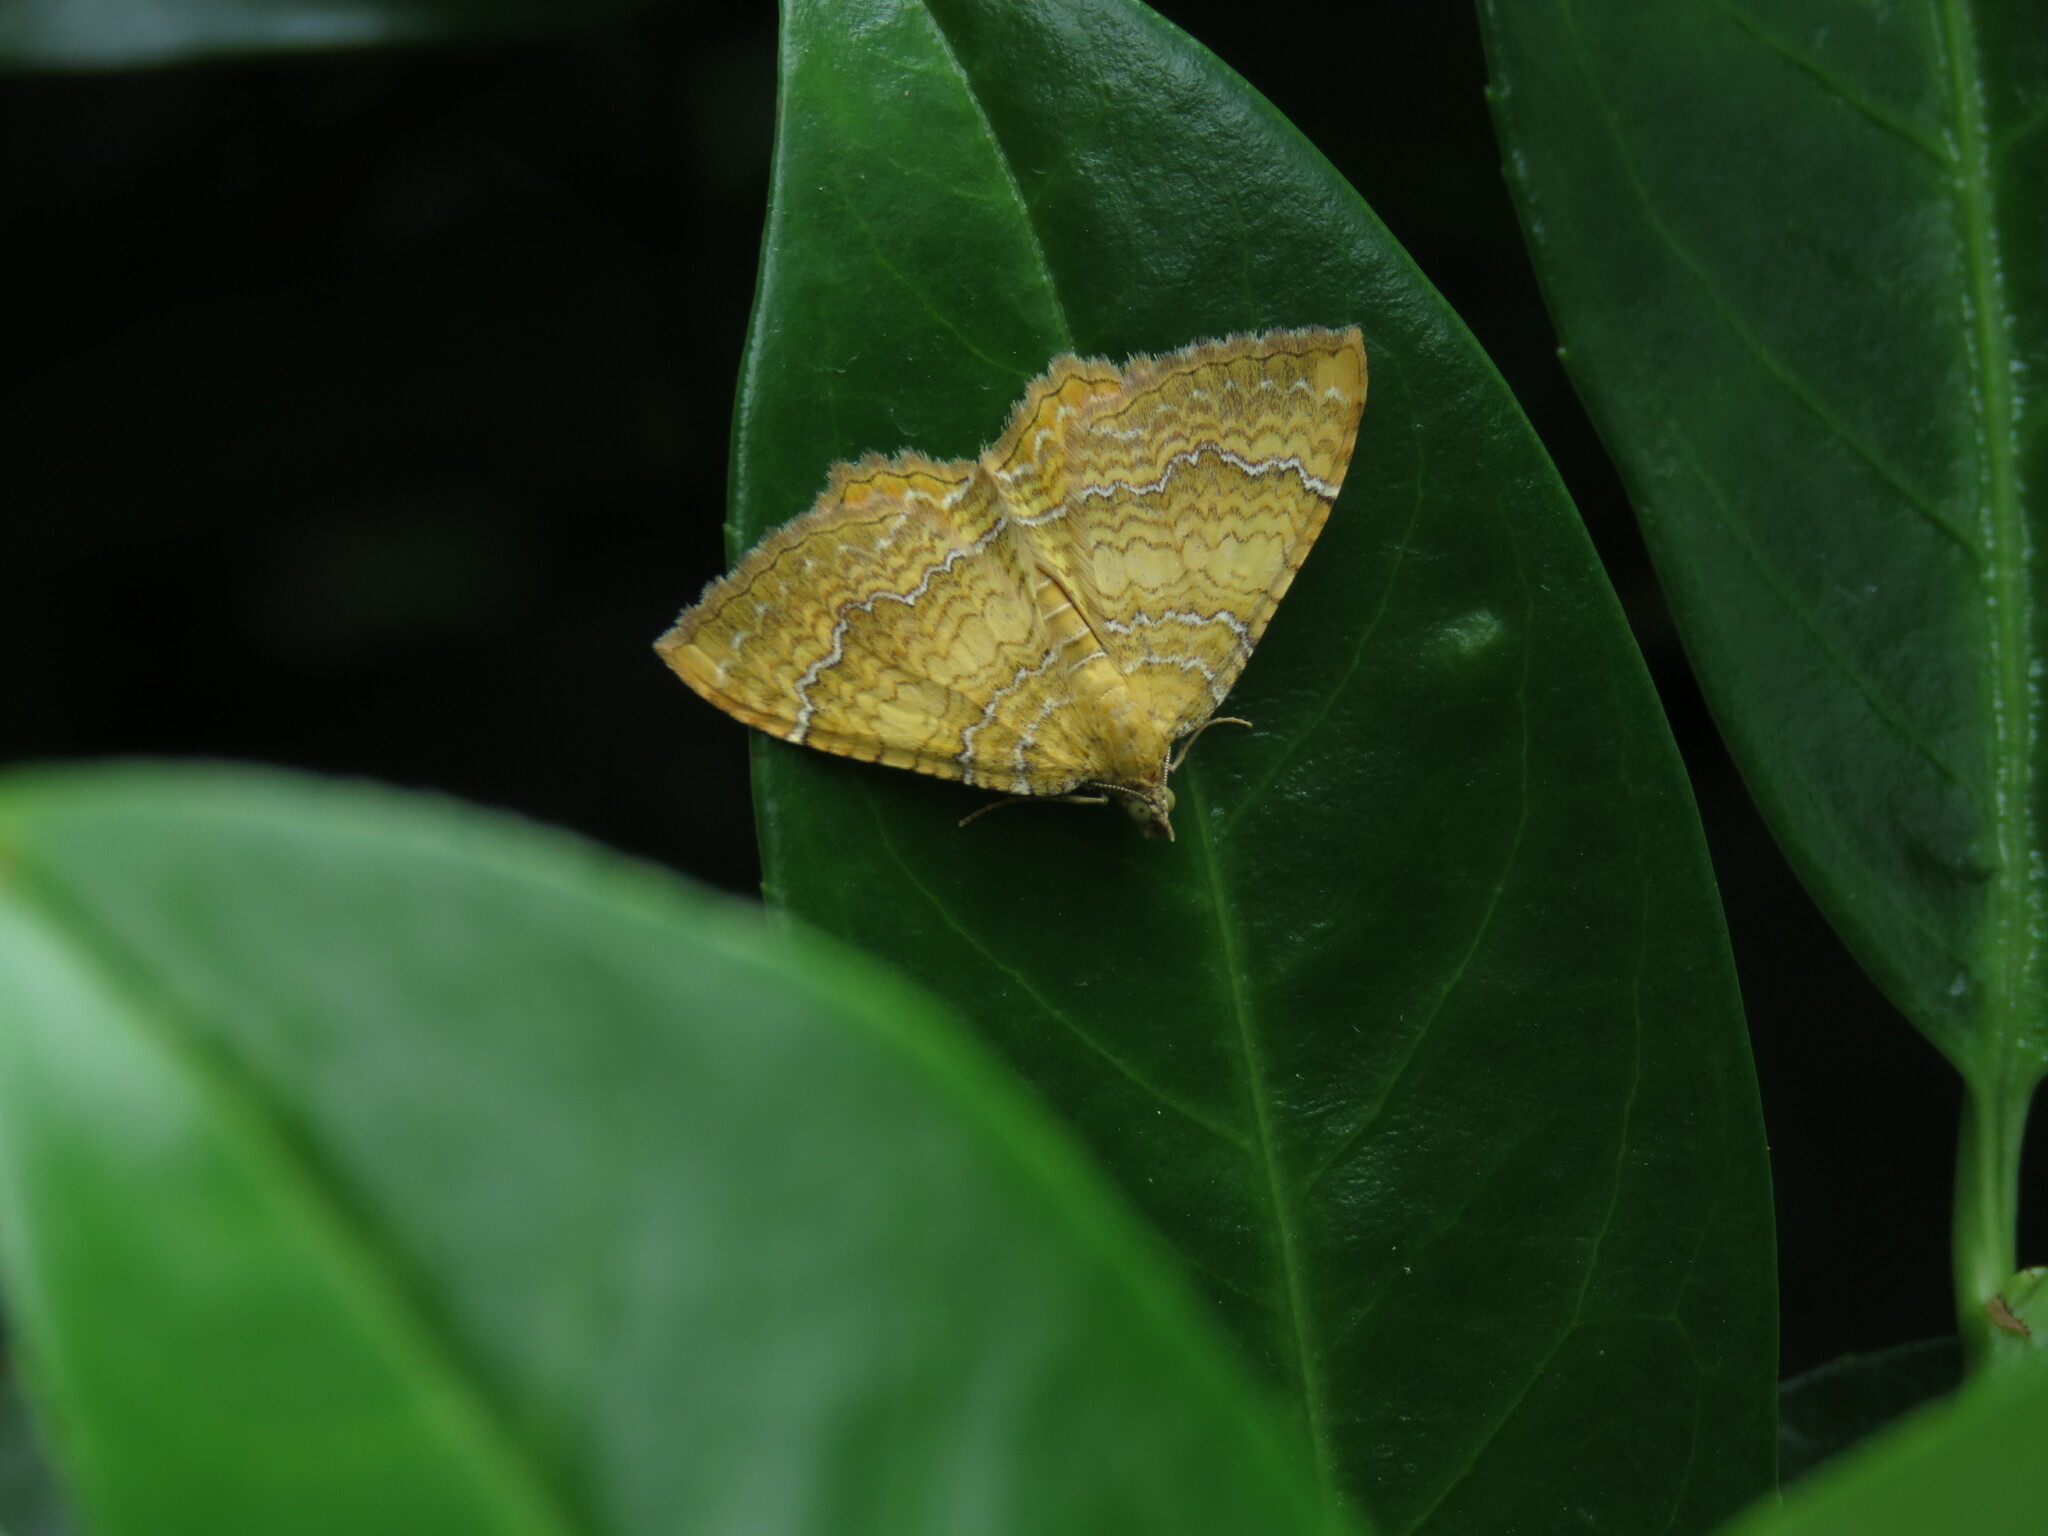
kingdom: Animalia
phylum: Arthropoda
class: Insecta
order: Lepidoptera
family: Geometridae
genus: Camptogramma
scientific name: Camptogramma bilineata
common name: Yellow shell
